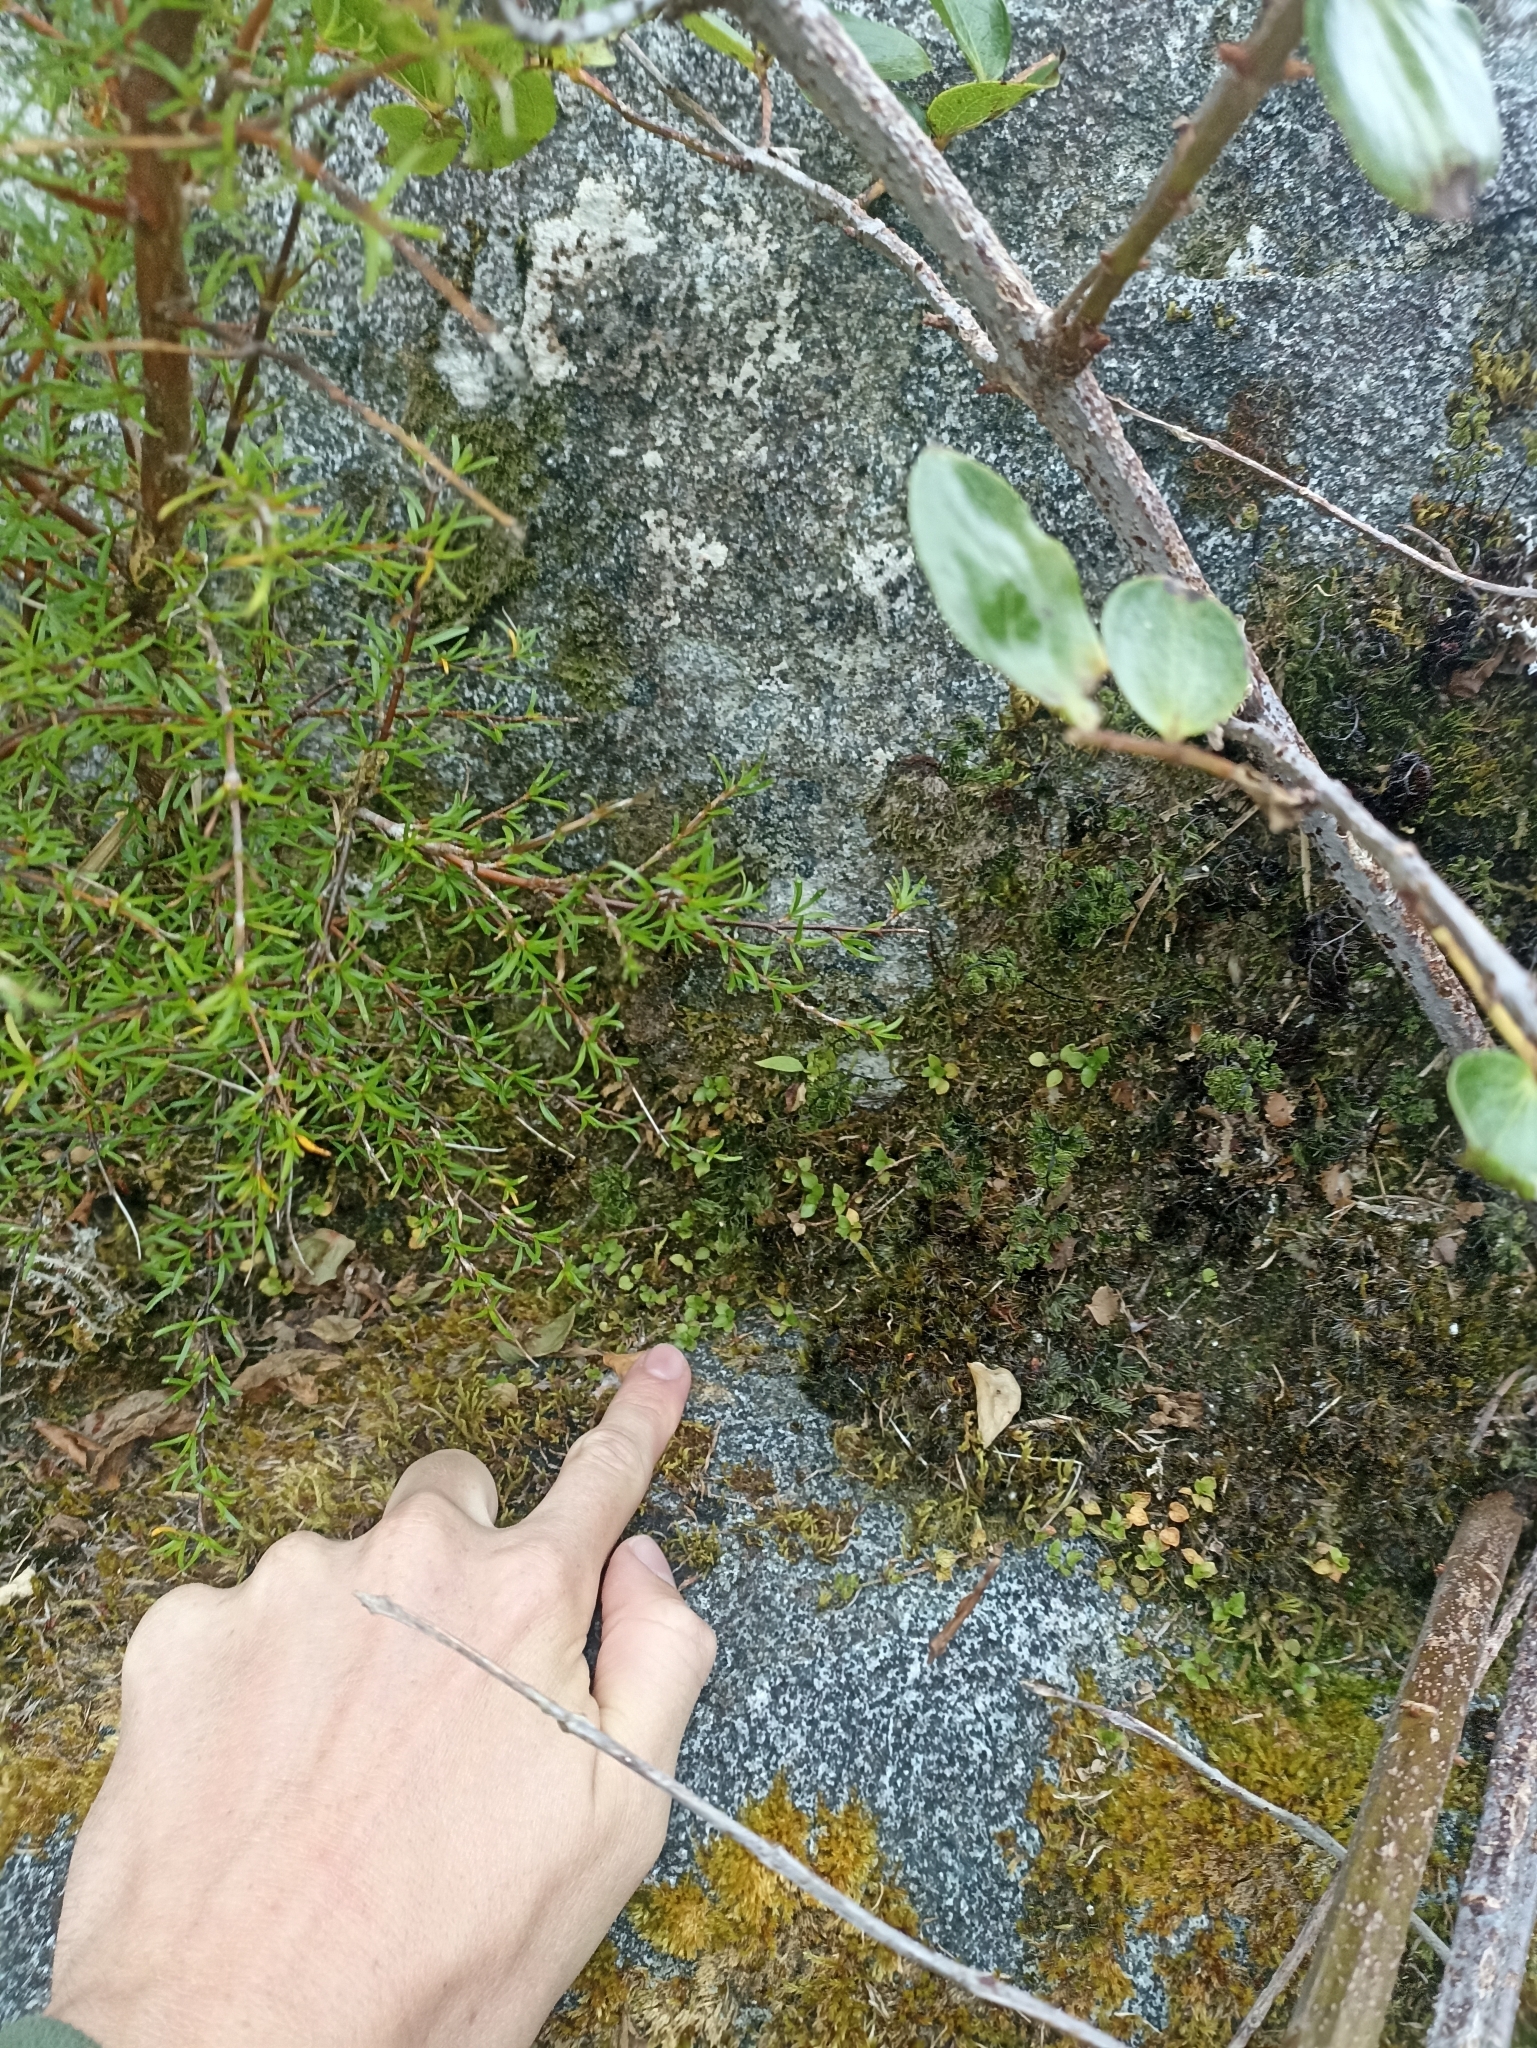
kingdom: Plantae
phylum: Tracheophyta
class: Magnoliopsida
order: Gentianales
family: Rubiaceae
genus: Nertera
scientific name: Nertera granadensis
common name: Beadplant
